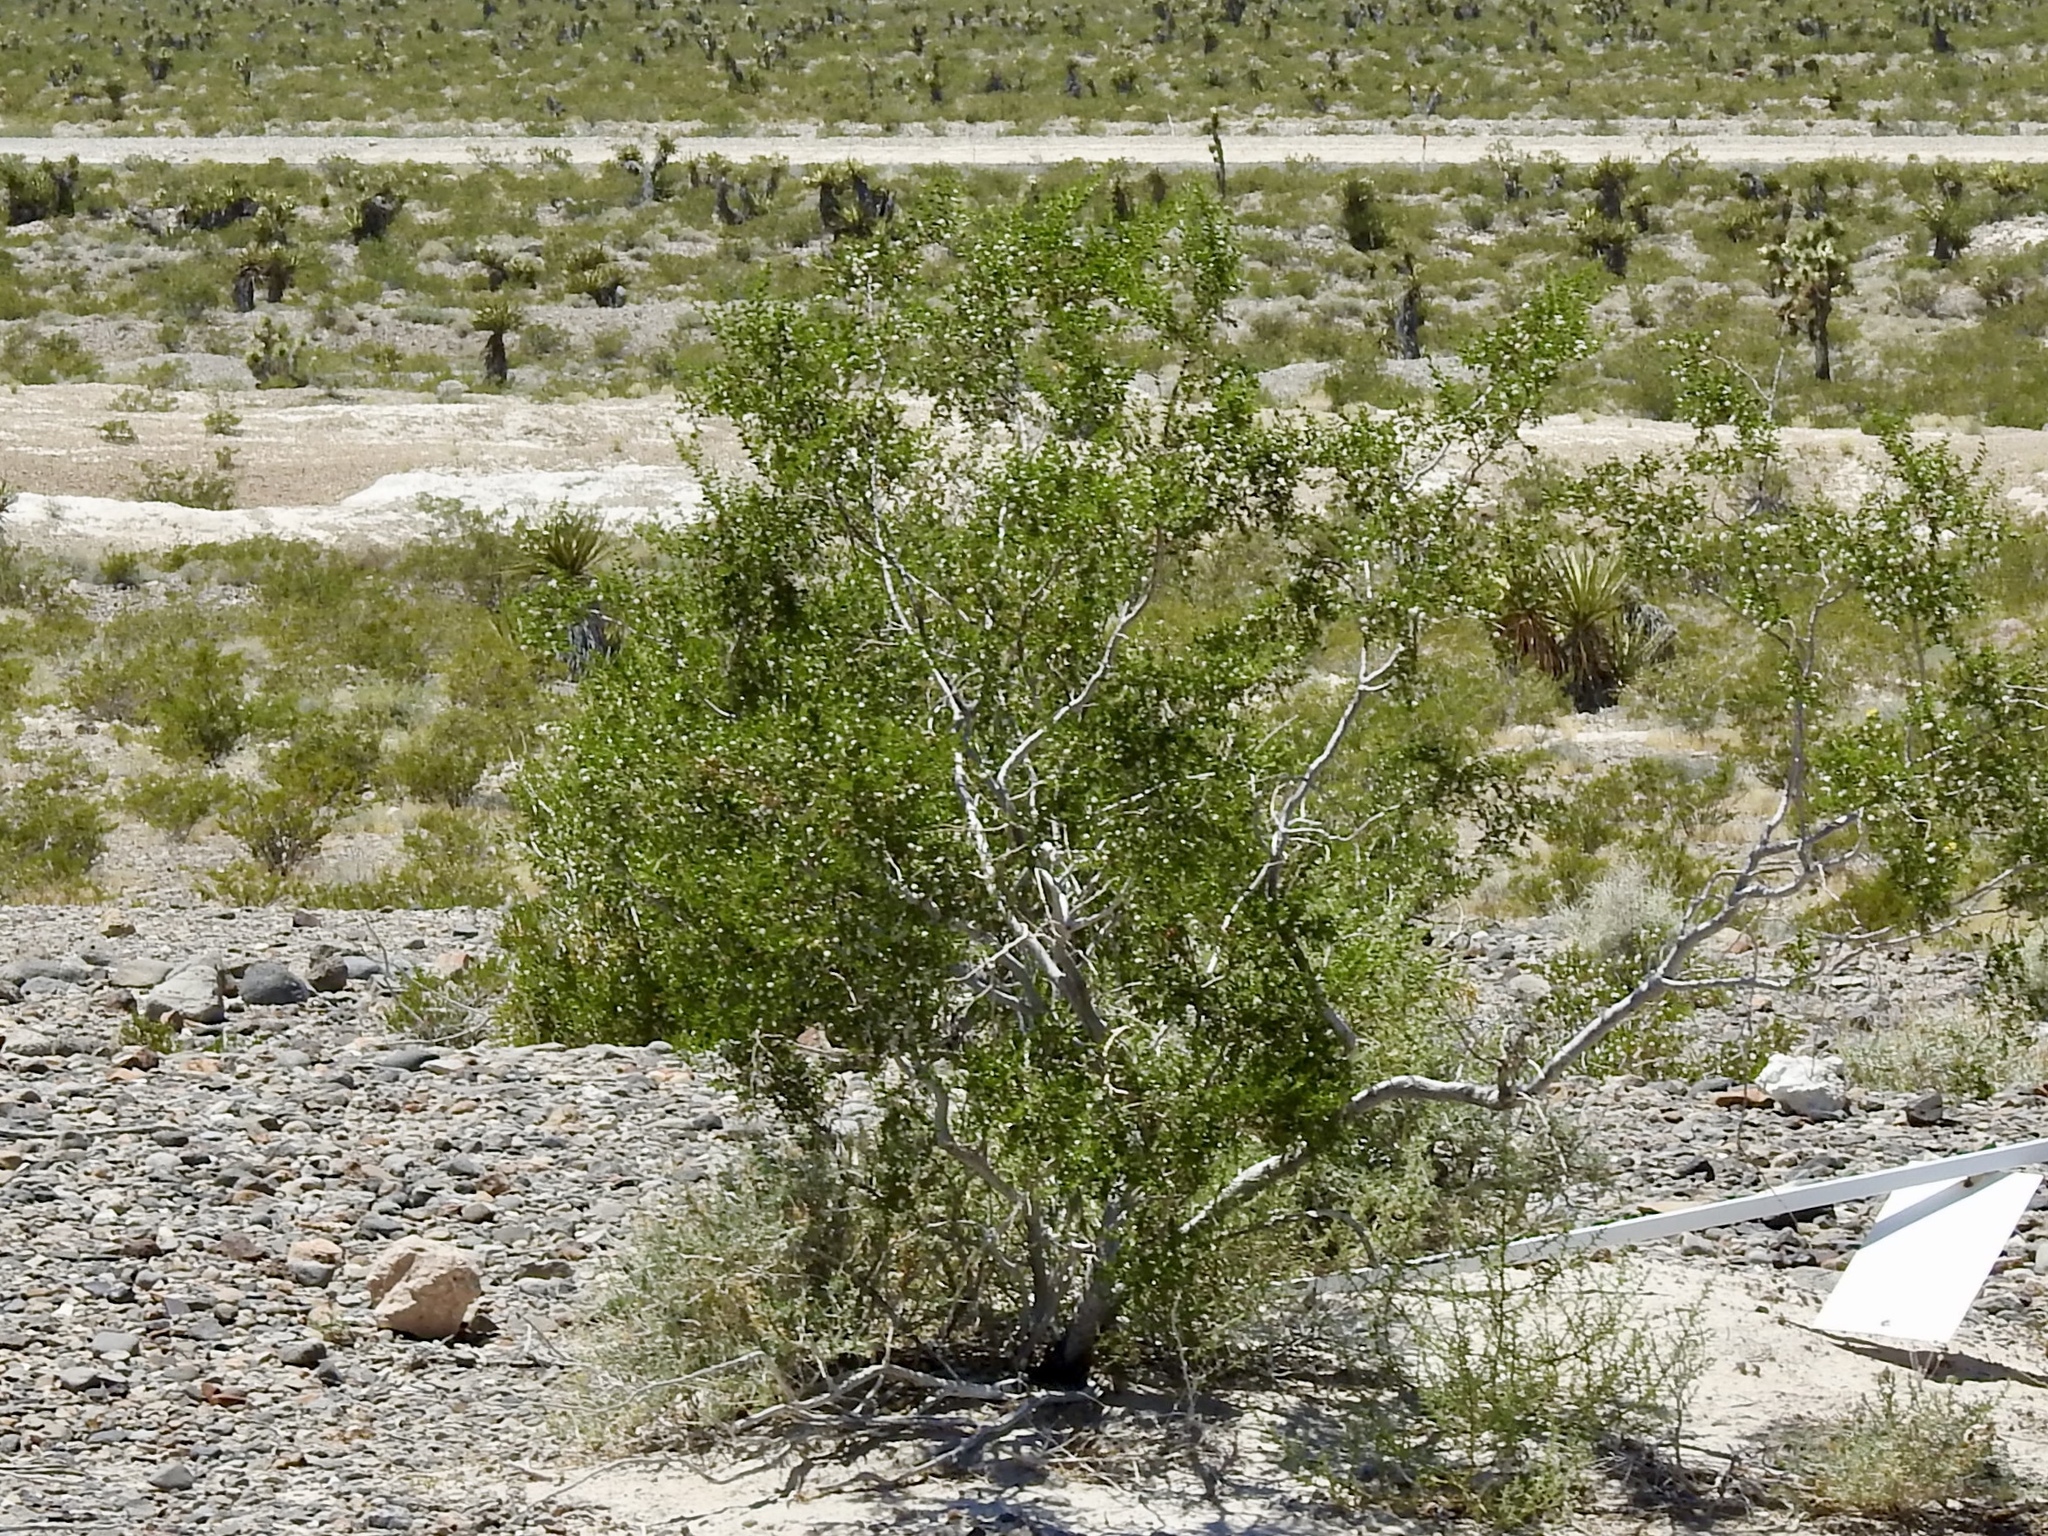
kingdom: Plantae
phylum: Tracheophyta
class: Magnoliopsida
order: Zygophyllales
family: Zygophyllaceae
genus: Larrea
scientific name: Larrea tridentata
